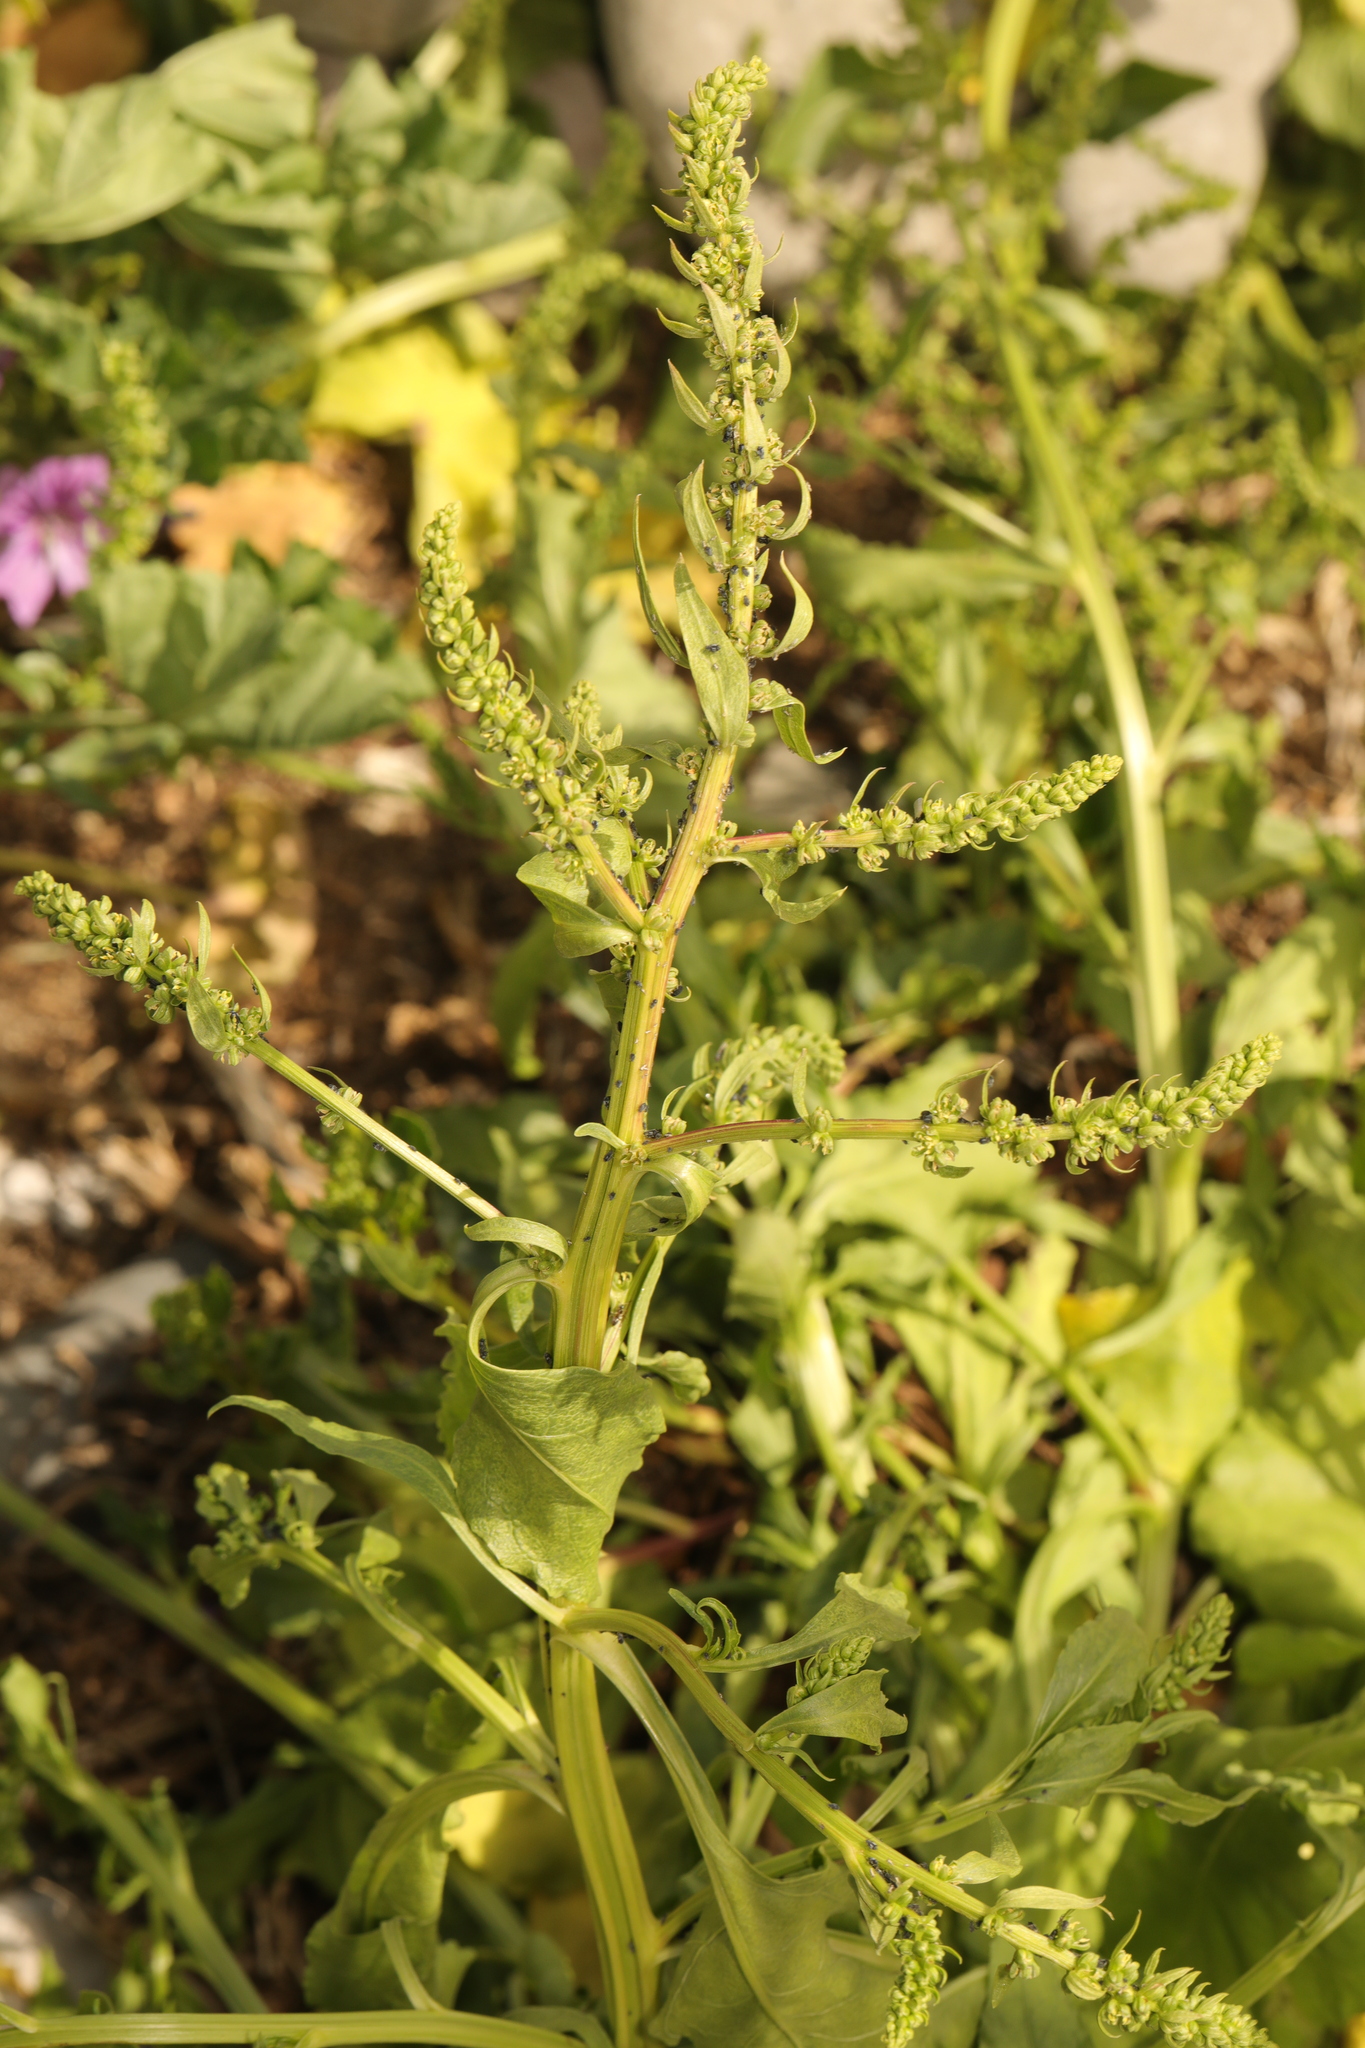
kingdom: Plantae
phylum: Tracheophyta
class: Magnoliopsida
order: Caryophyllales
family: Amaranthaceae
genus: Beta
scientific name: Beta vulgaris
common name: Beet
